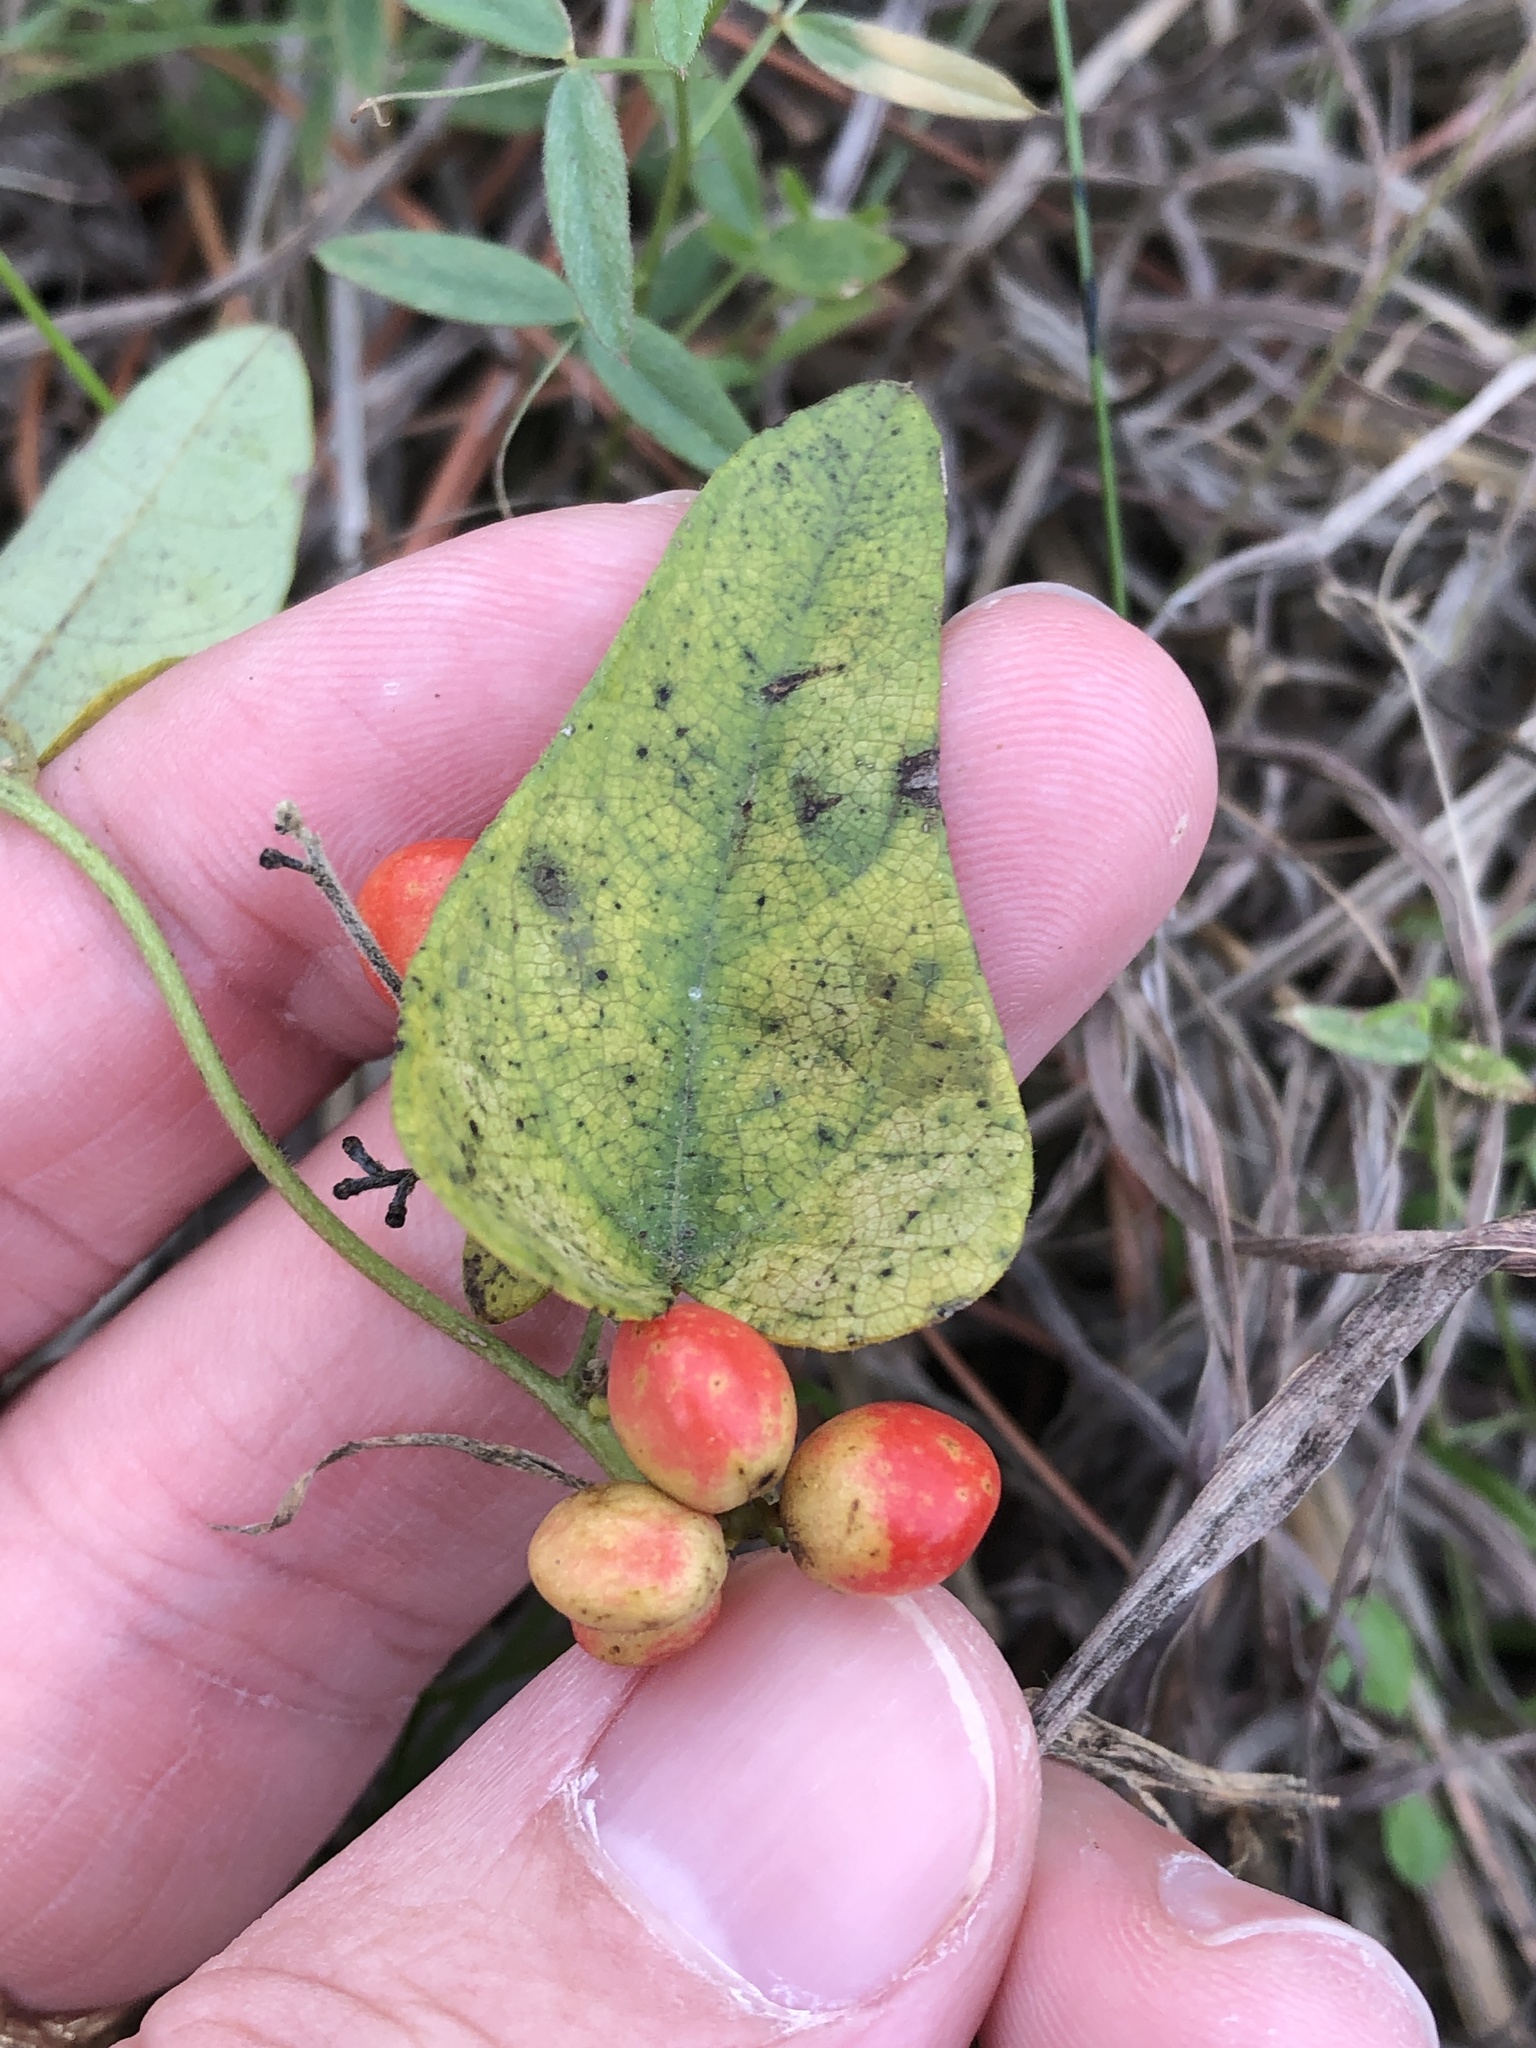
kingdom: Plantae
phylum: Tracheophyta
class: Magnoliopsida
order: Ranunculales
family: Menispermaceae
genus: Cocculus
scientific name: Cocculus carolinus
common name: Carolina moonseed
